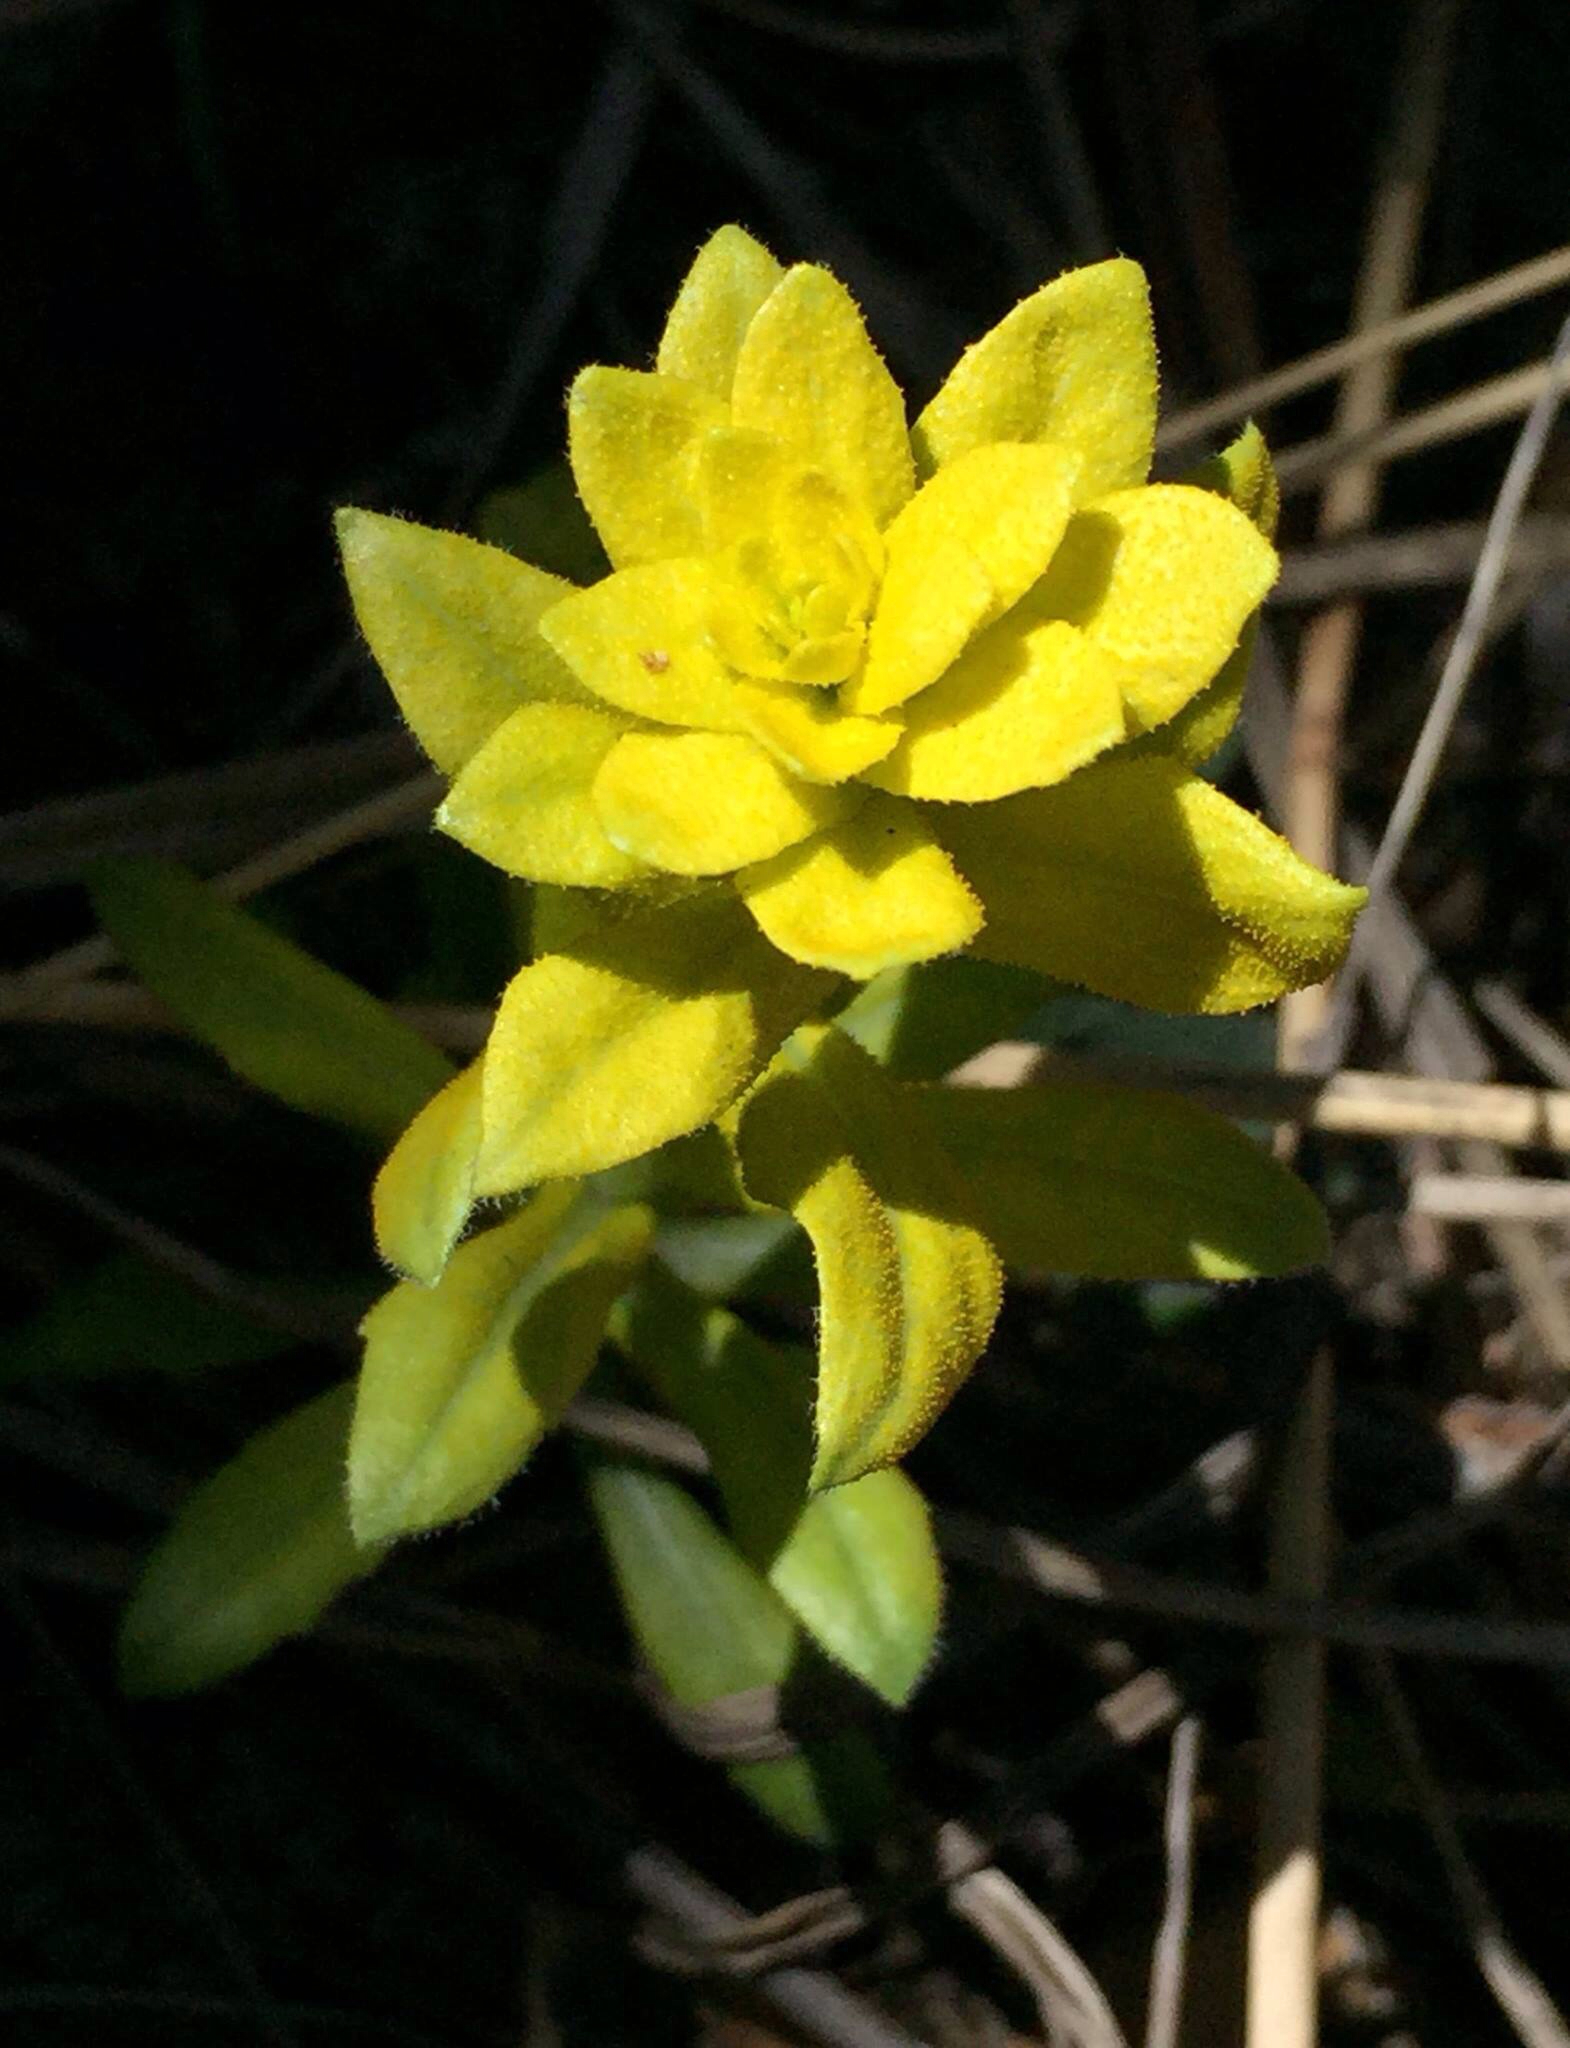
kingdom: Fungi
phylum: Basidiomycota
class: Pucciniomycetes
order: Pucciniales
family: Pucciniaceae
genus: Puccinia
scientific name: Puccinia monoica
